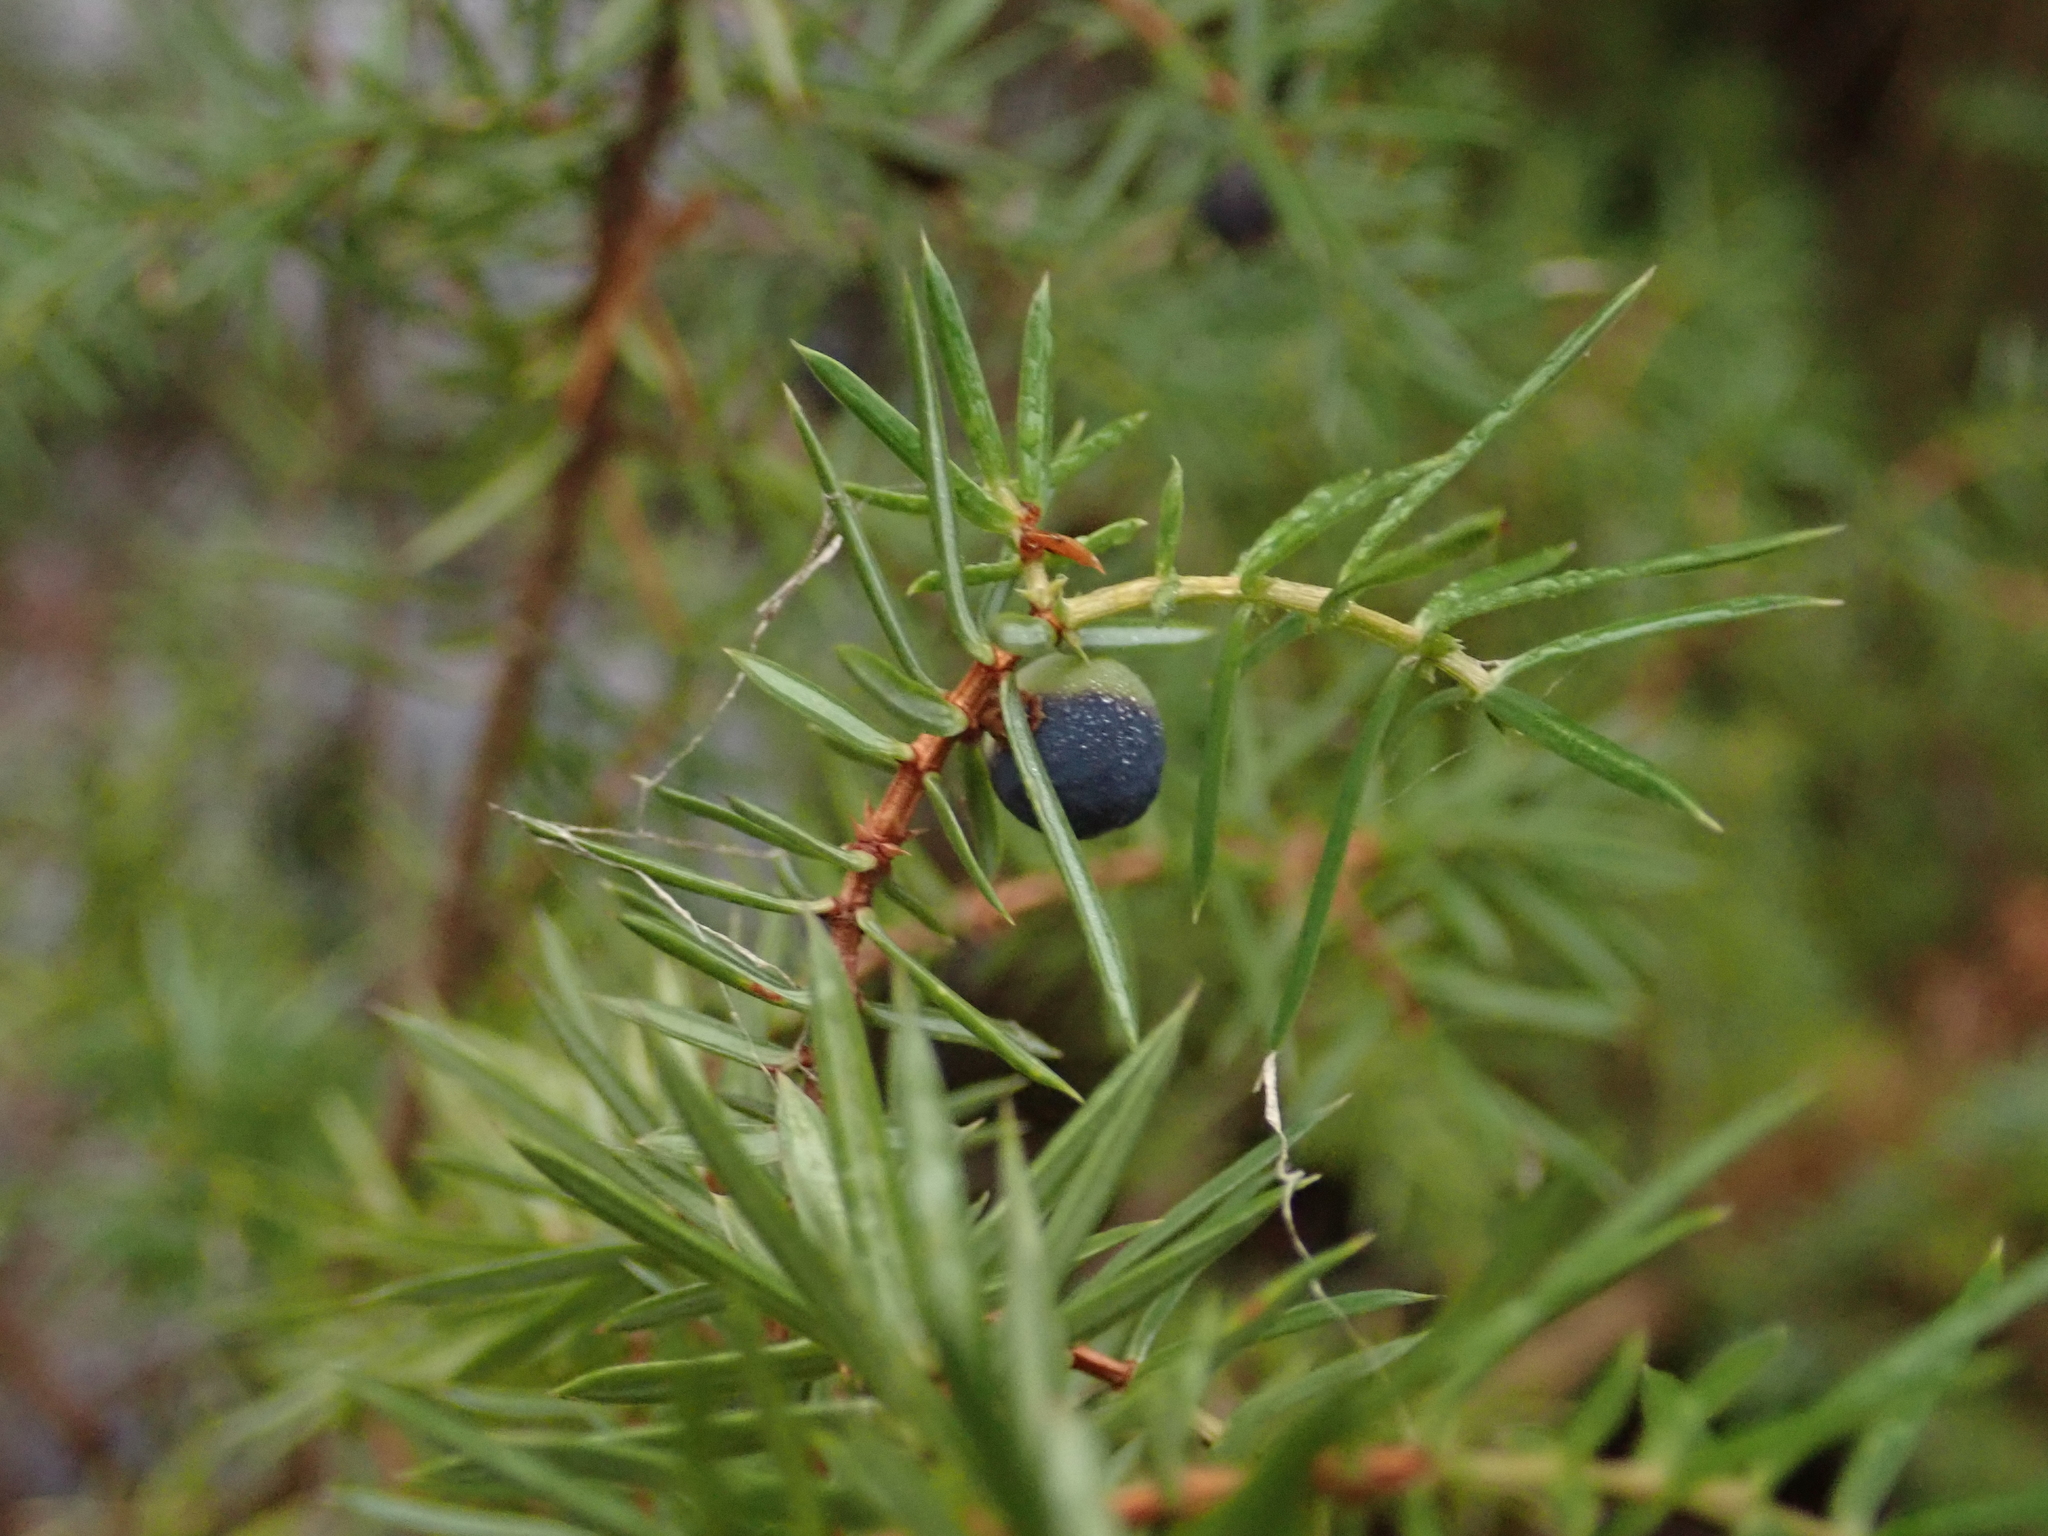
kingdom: Plantae
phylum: Tracheophyta
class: Pinopsida
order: Pinales
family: Cupressaceae
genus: Juniperus
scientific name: Juniperus communis
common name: Common juniper
